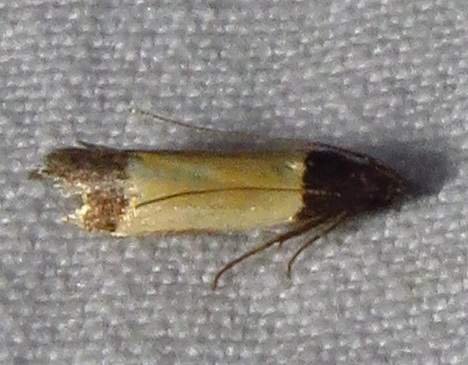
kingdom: Animalia
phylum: Arthropoda
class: Insecta
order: Lepidoptera
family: Gelechiidae
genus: Anacampsis
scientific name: Anacampsis coverdalella
